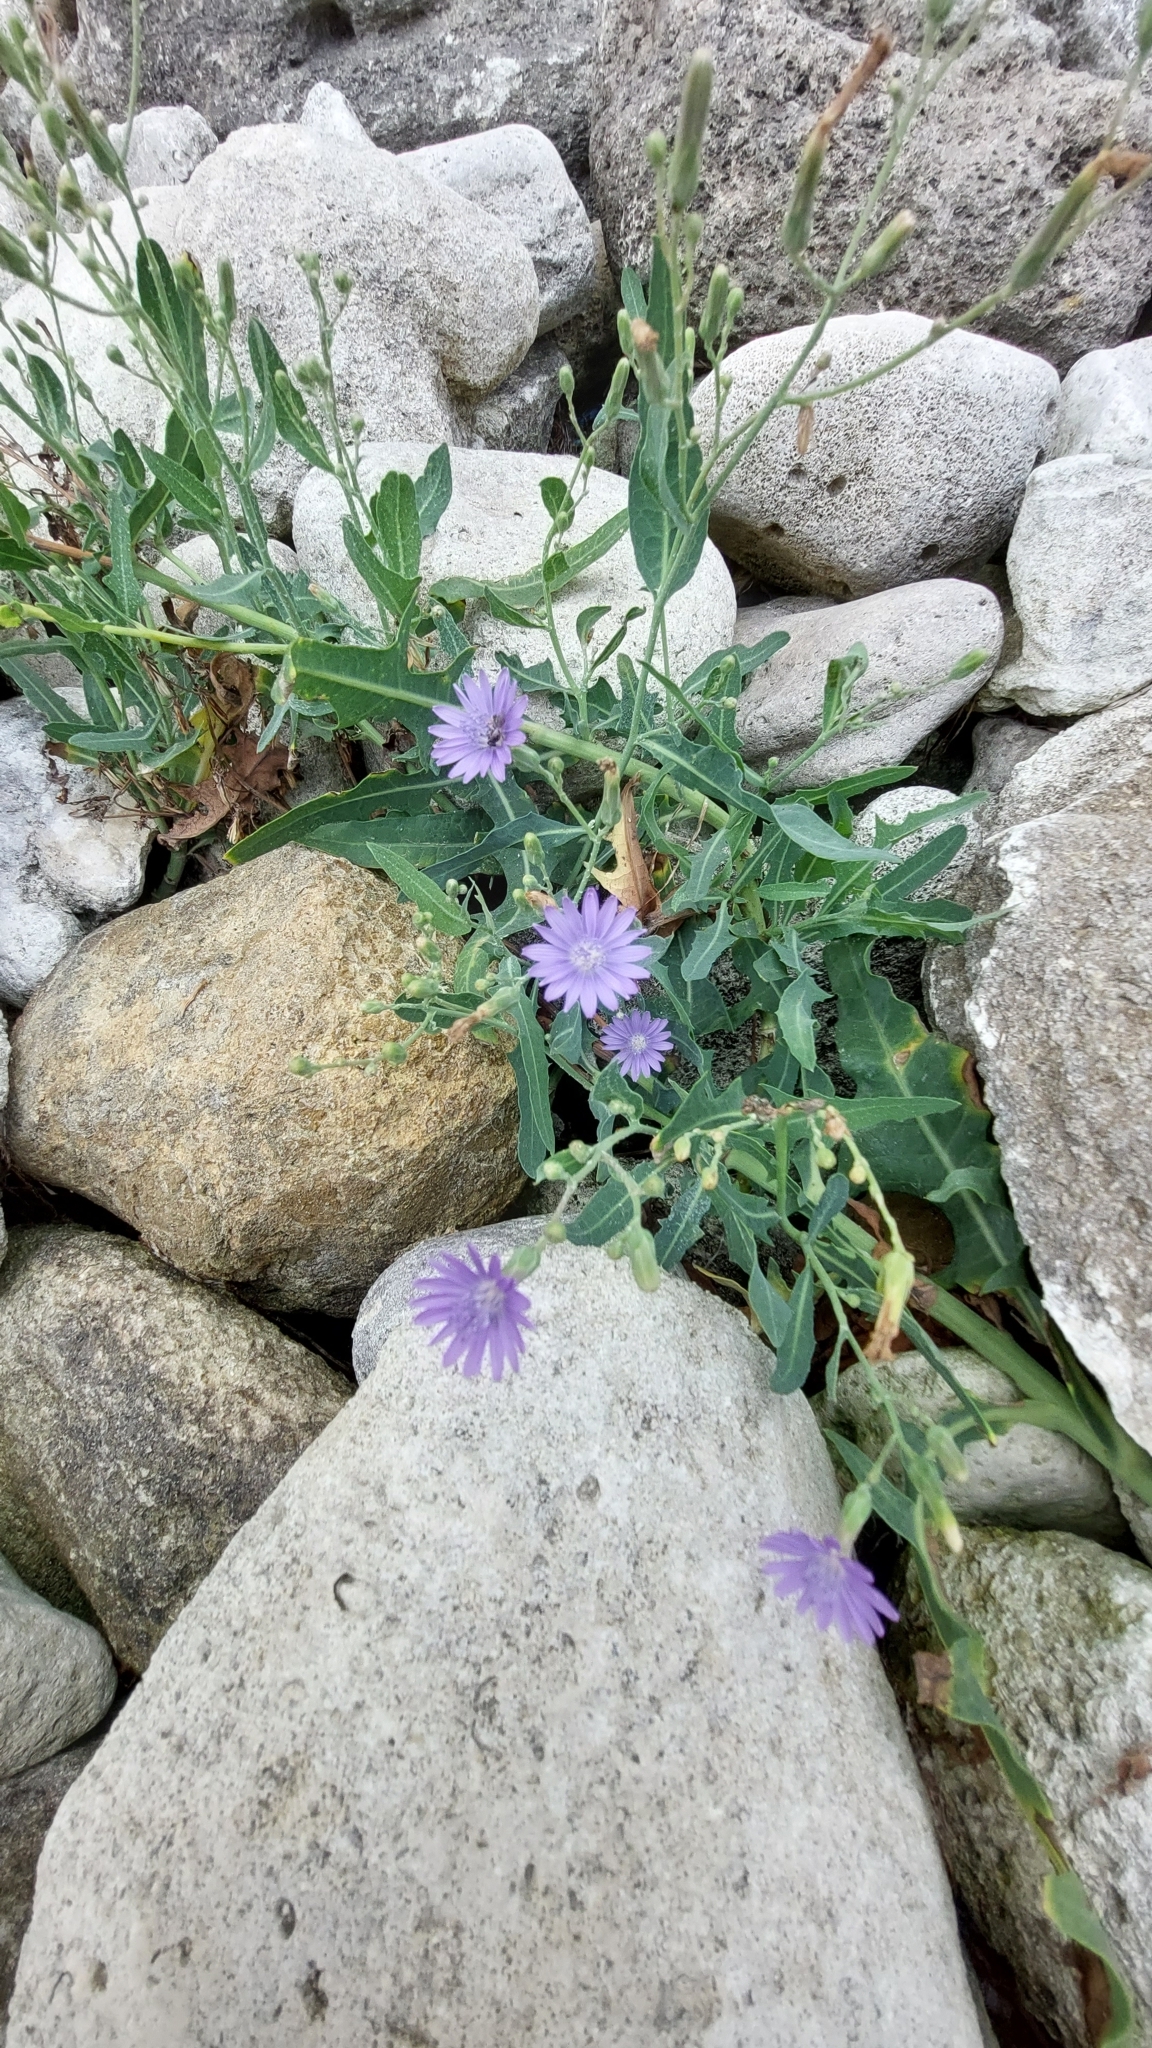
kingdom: Plantae
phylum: Tracheophyta
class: Magnoliopsida
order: Asterales
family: Asteraceae
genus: Lactuca
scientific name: Lactuca tatarica
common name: Blue lettuce
